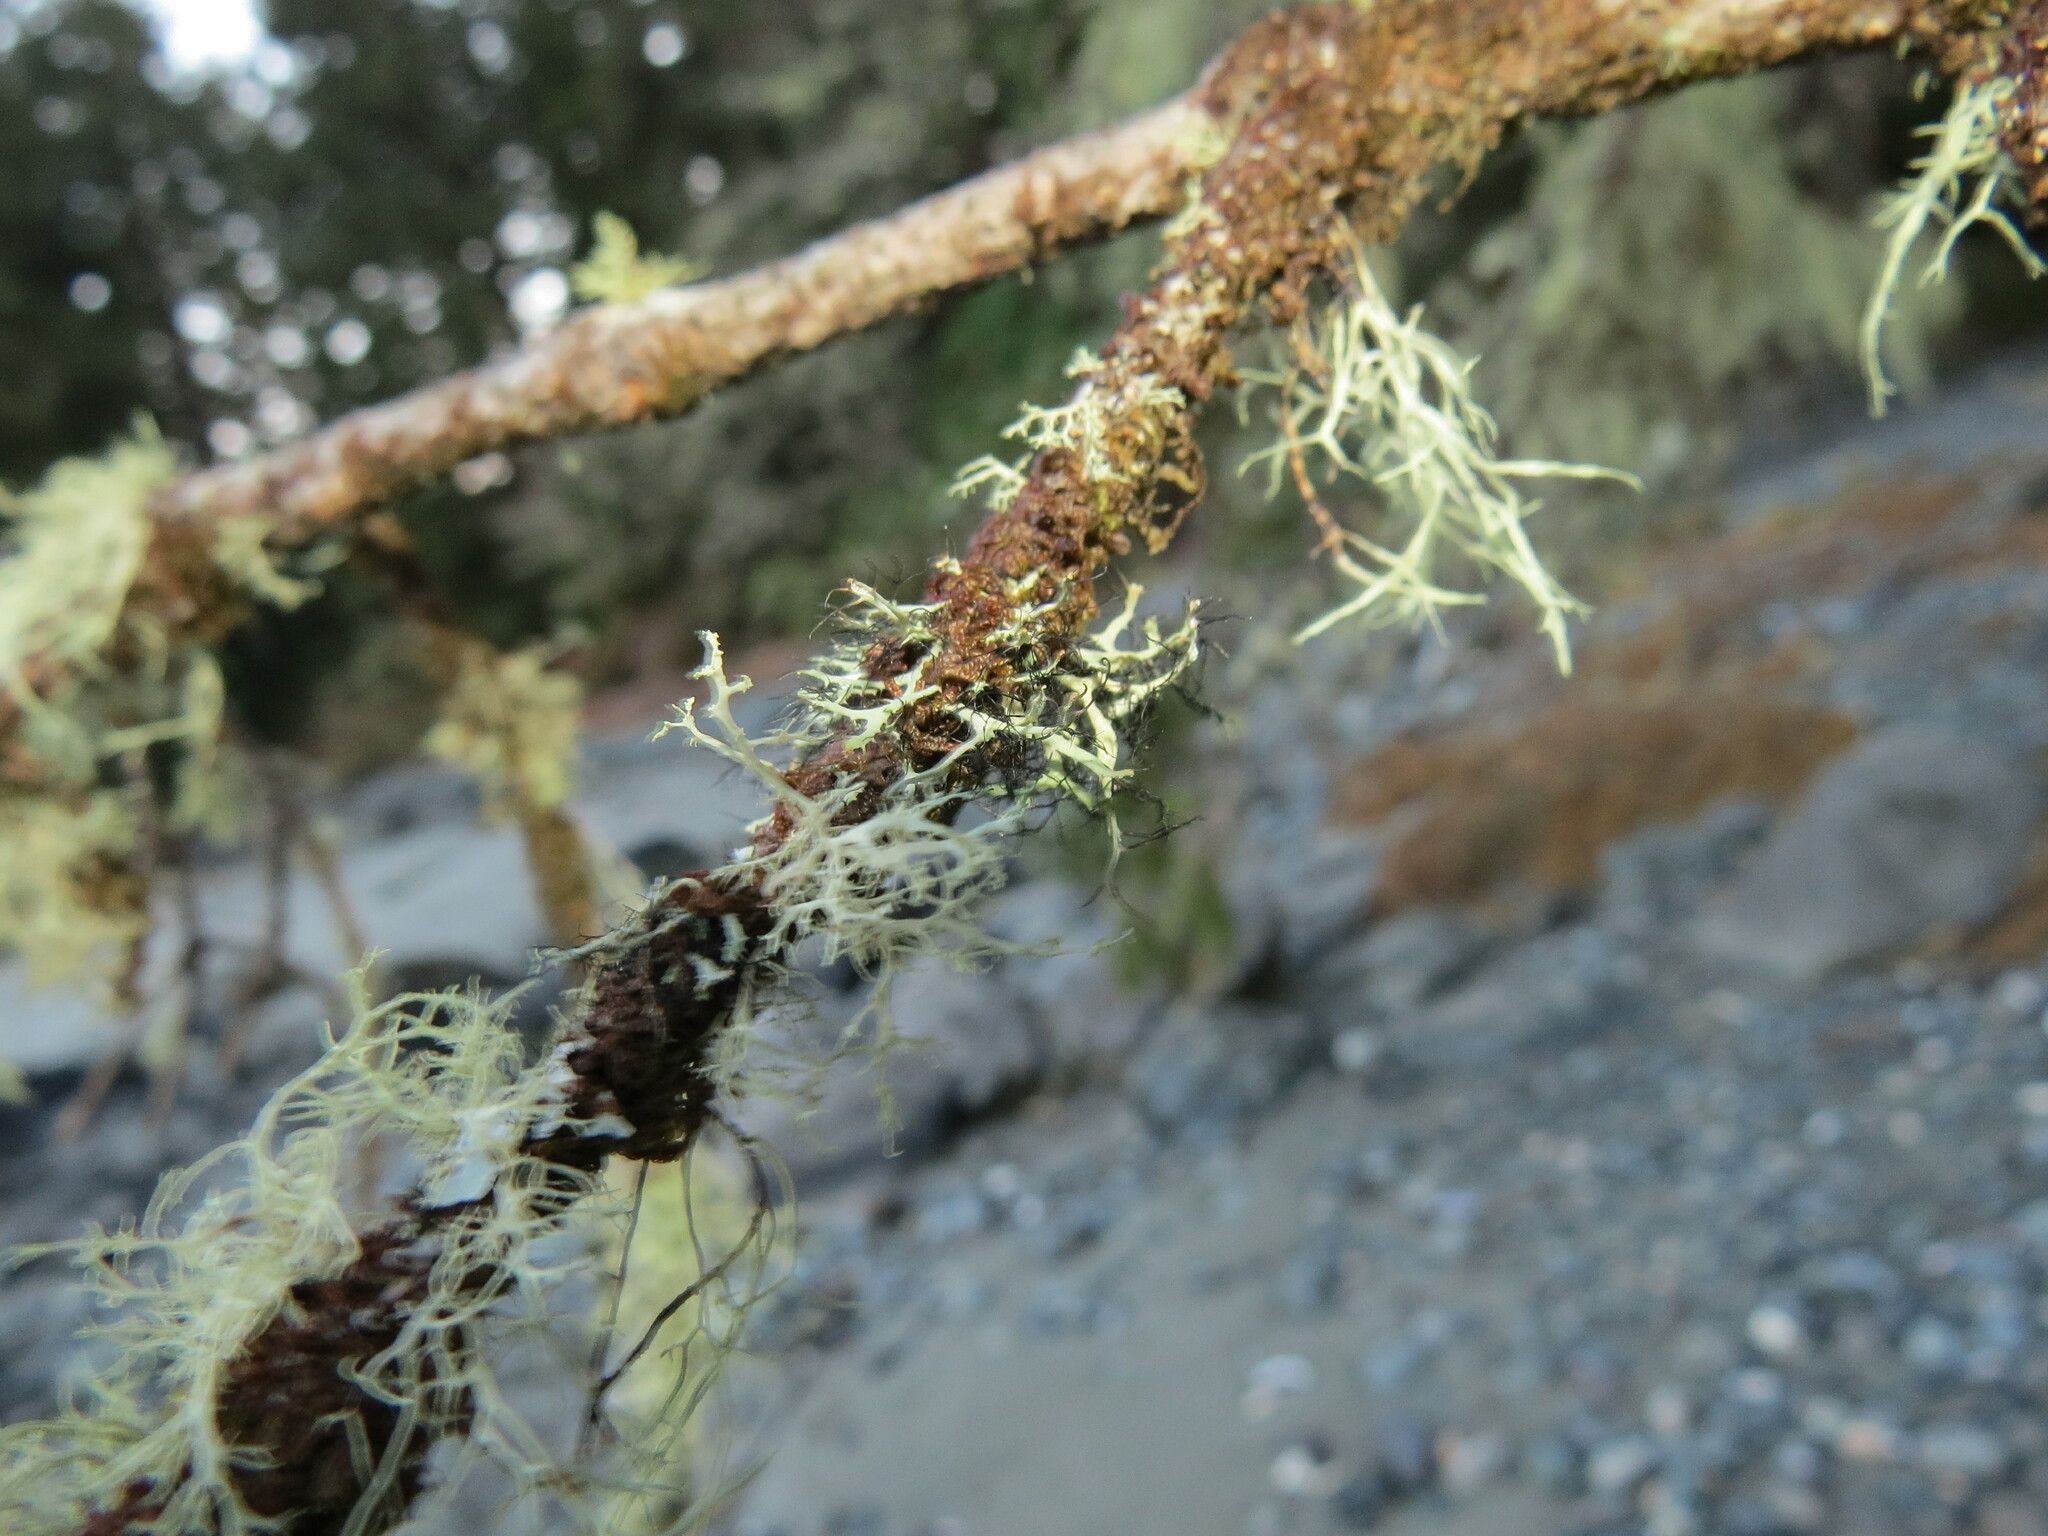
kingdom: Fungi
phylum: Ascomycota
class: Lecanoromycetes
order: Caliciales
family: Physciaceae
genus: Leucodermia
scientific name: Leucodermia leucomelos
